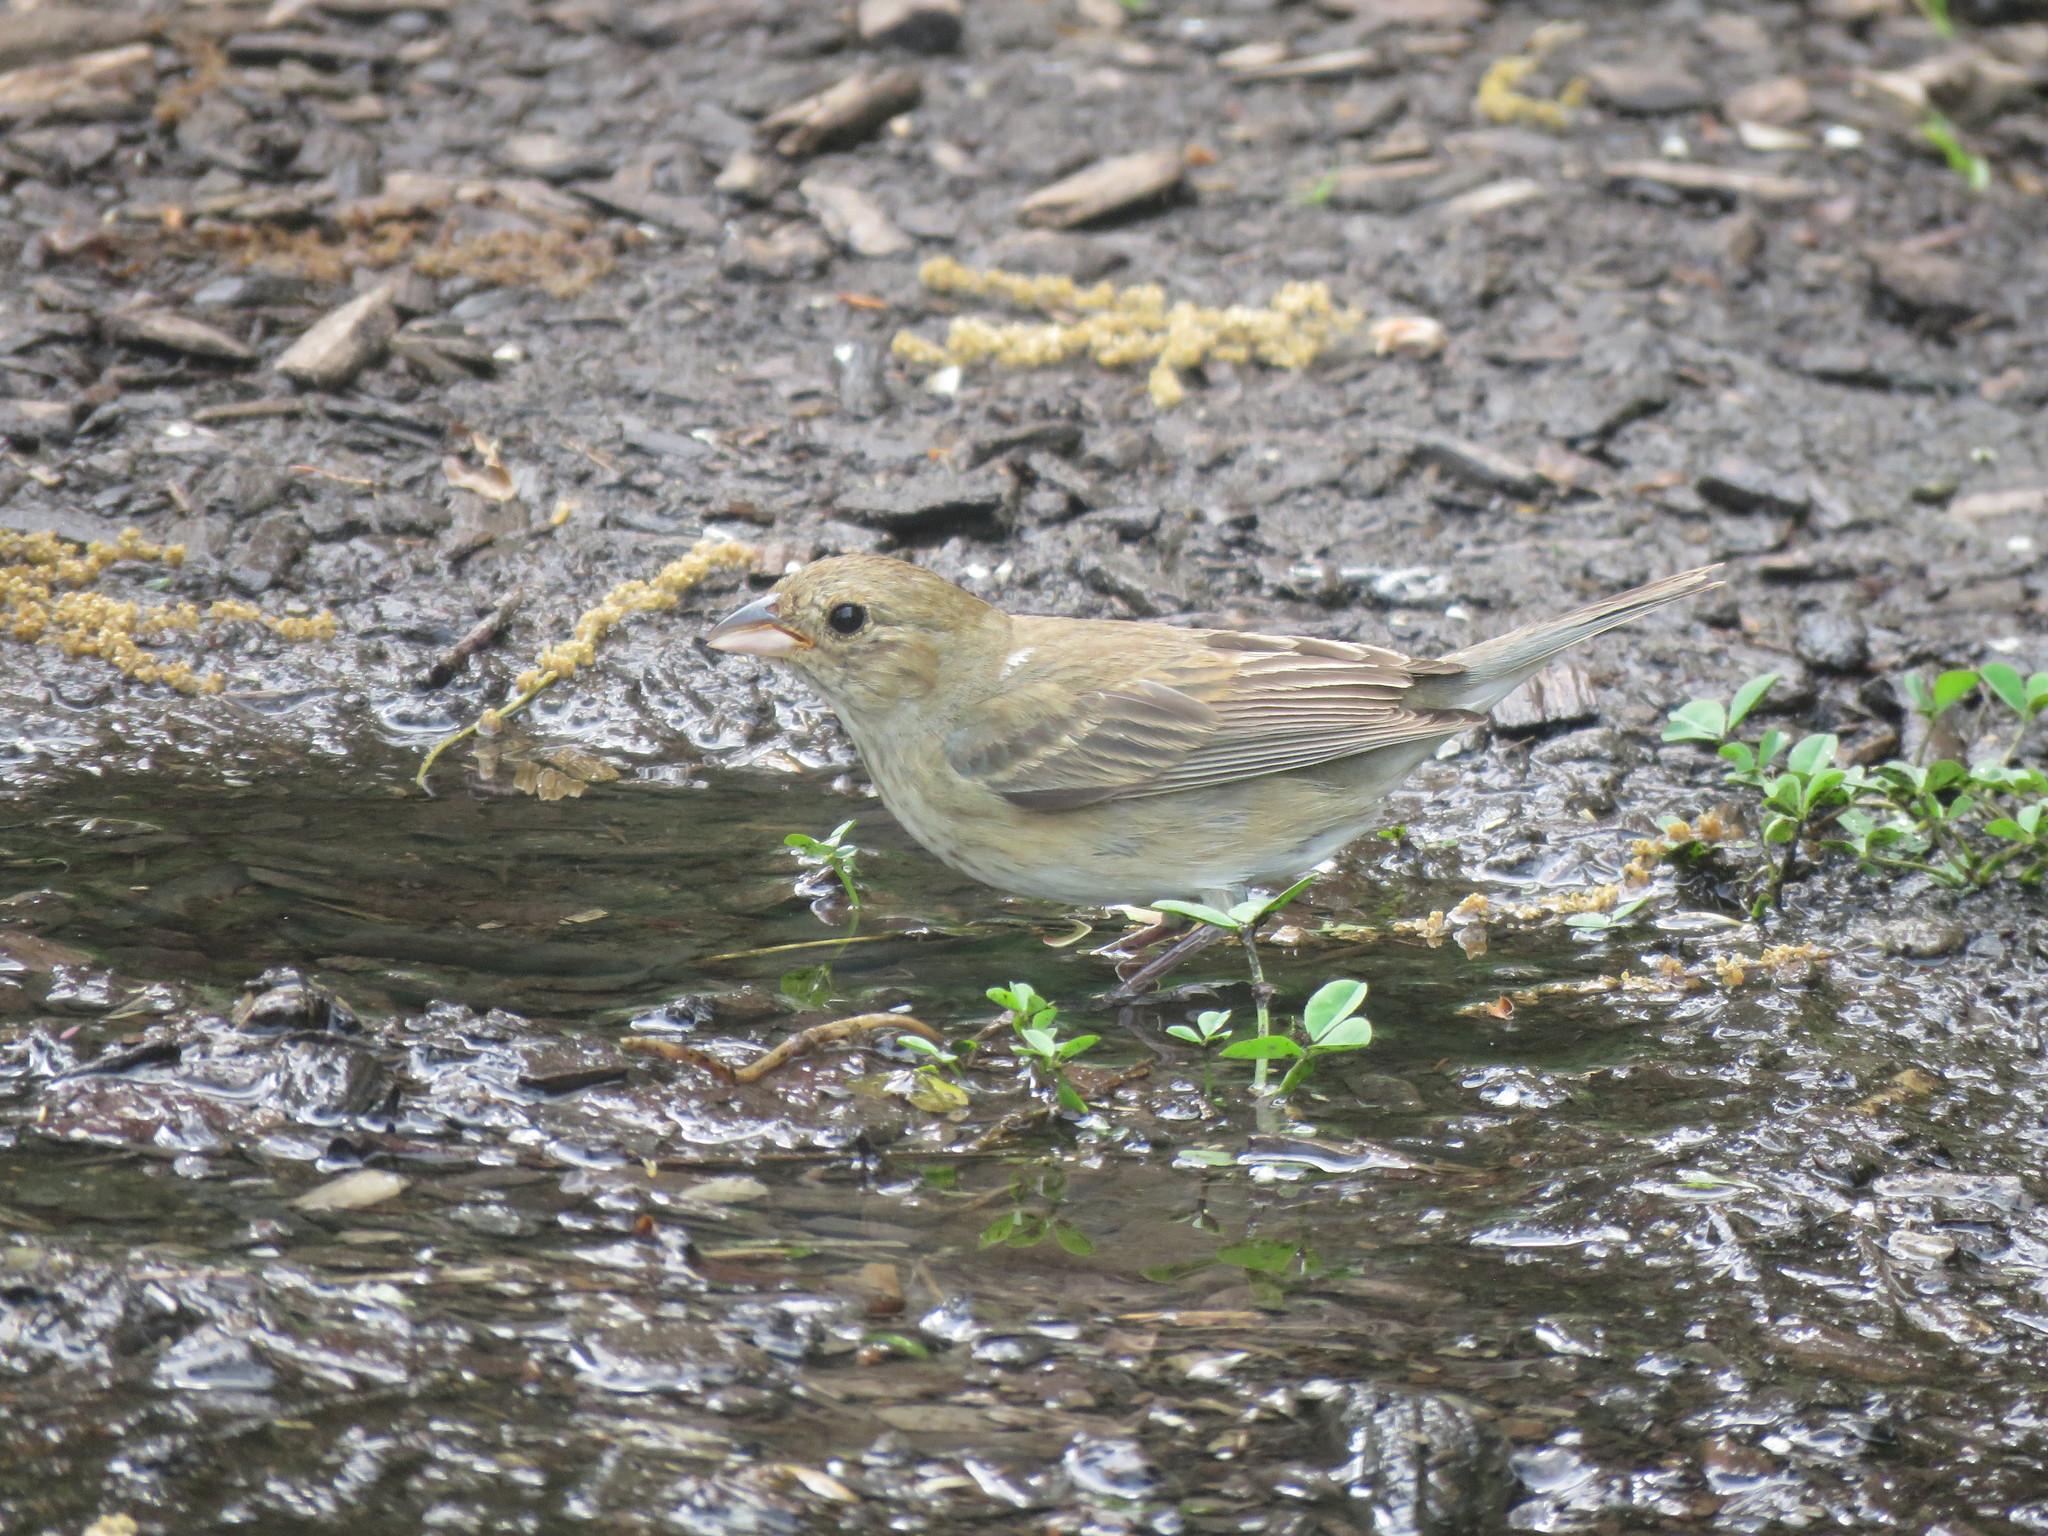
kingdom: Animalia
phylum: Chordata
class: Aves
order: Passeriformes
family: Cardinalidae
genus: Passerina
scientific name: Passerina cyanea
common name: Indigo bunting
